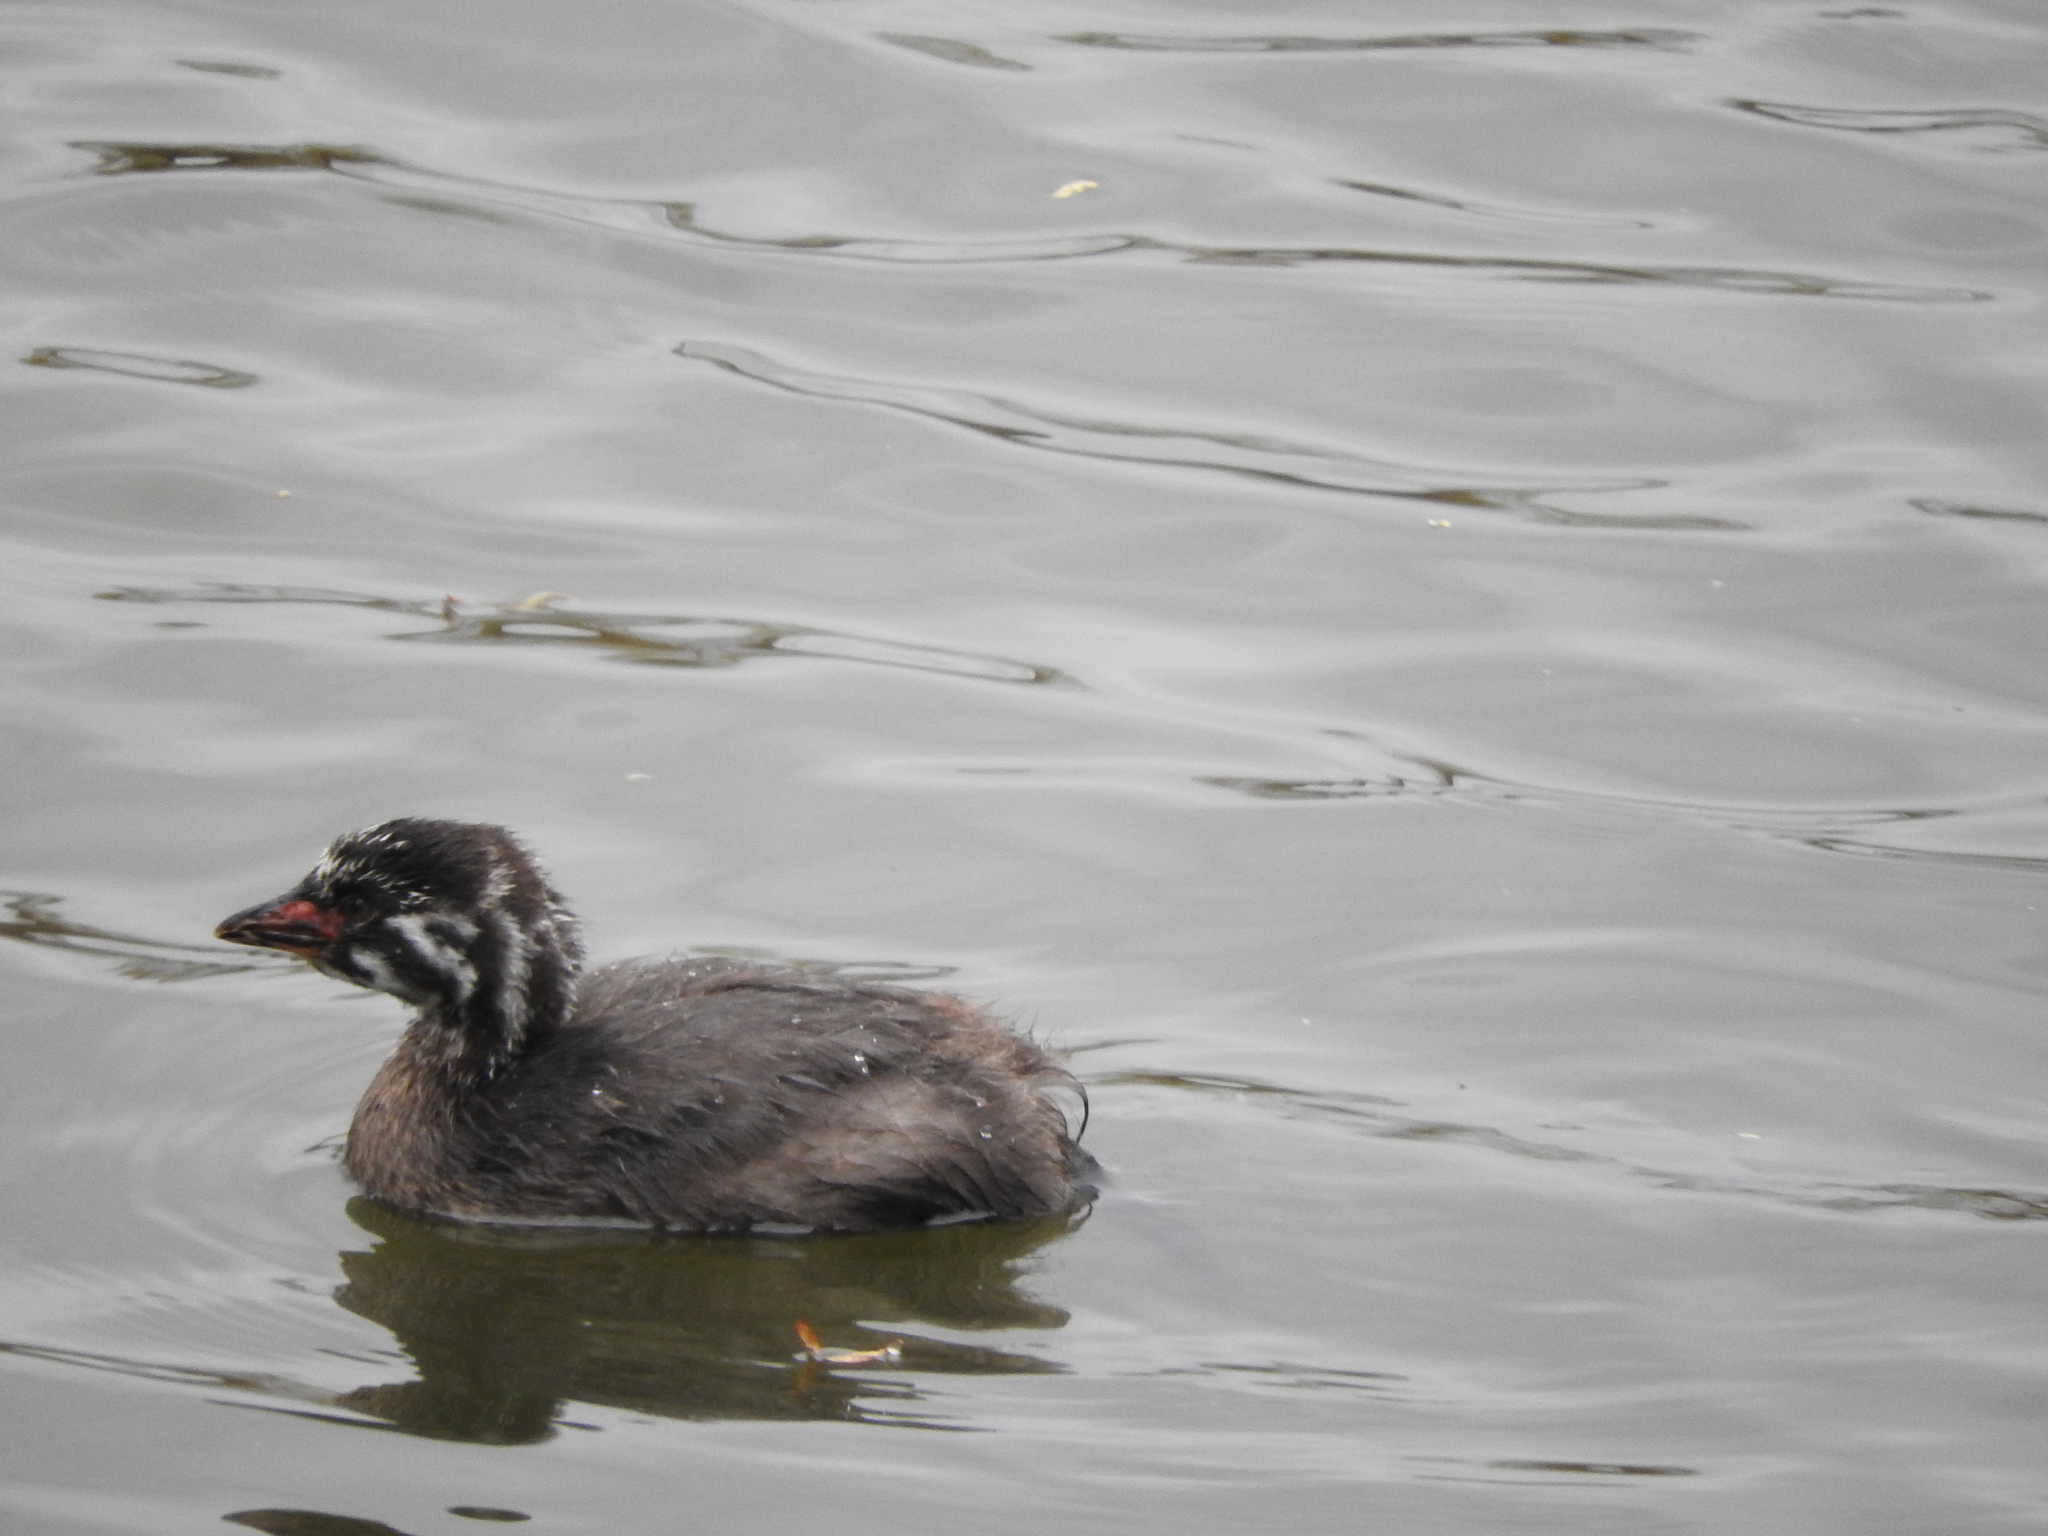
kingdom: Animalia
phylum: Chordata
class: Aves
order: Podicipediformes
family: Podicipedidae
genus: Tachybaptus
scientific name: Tachybaptus dominicus
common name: Least grebe
